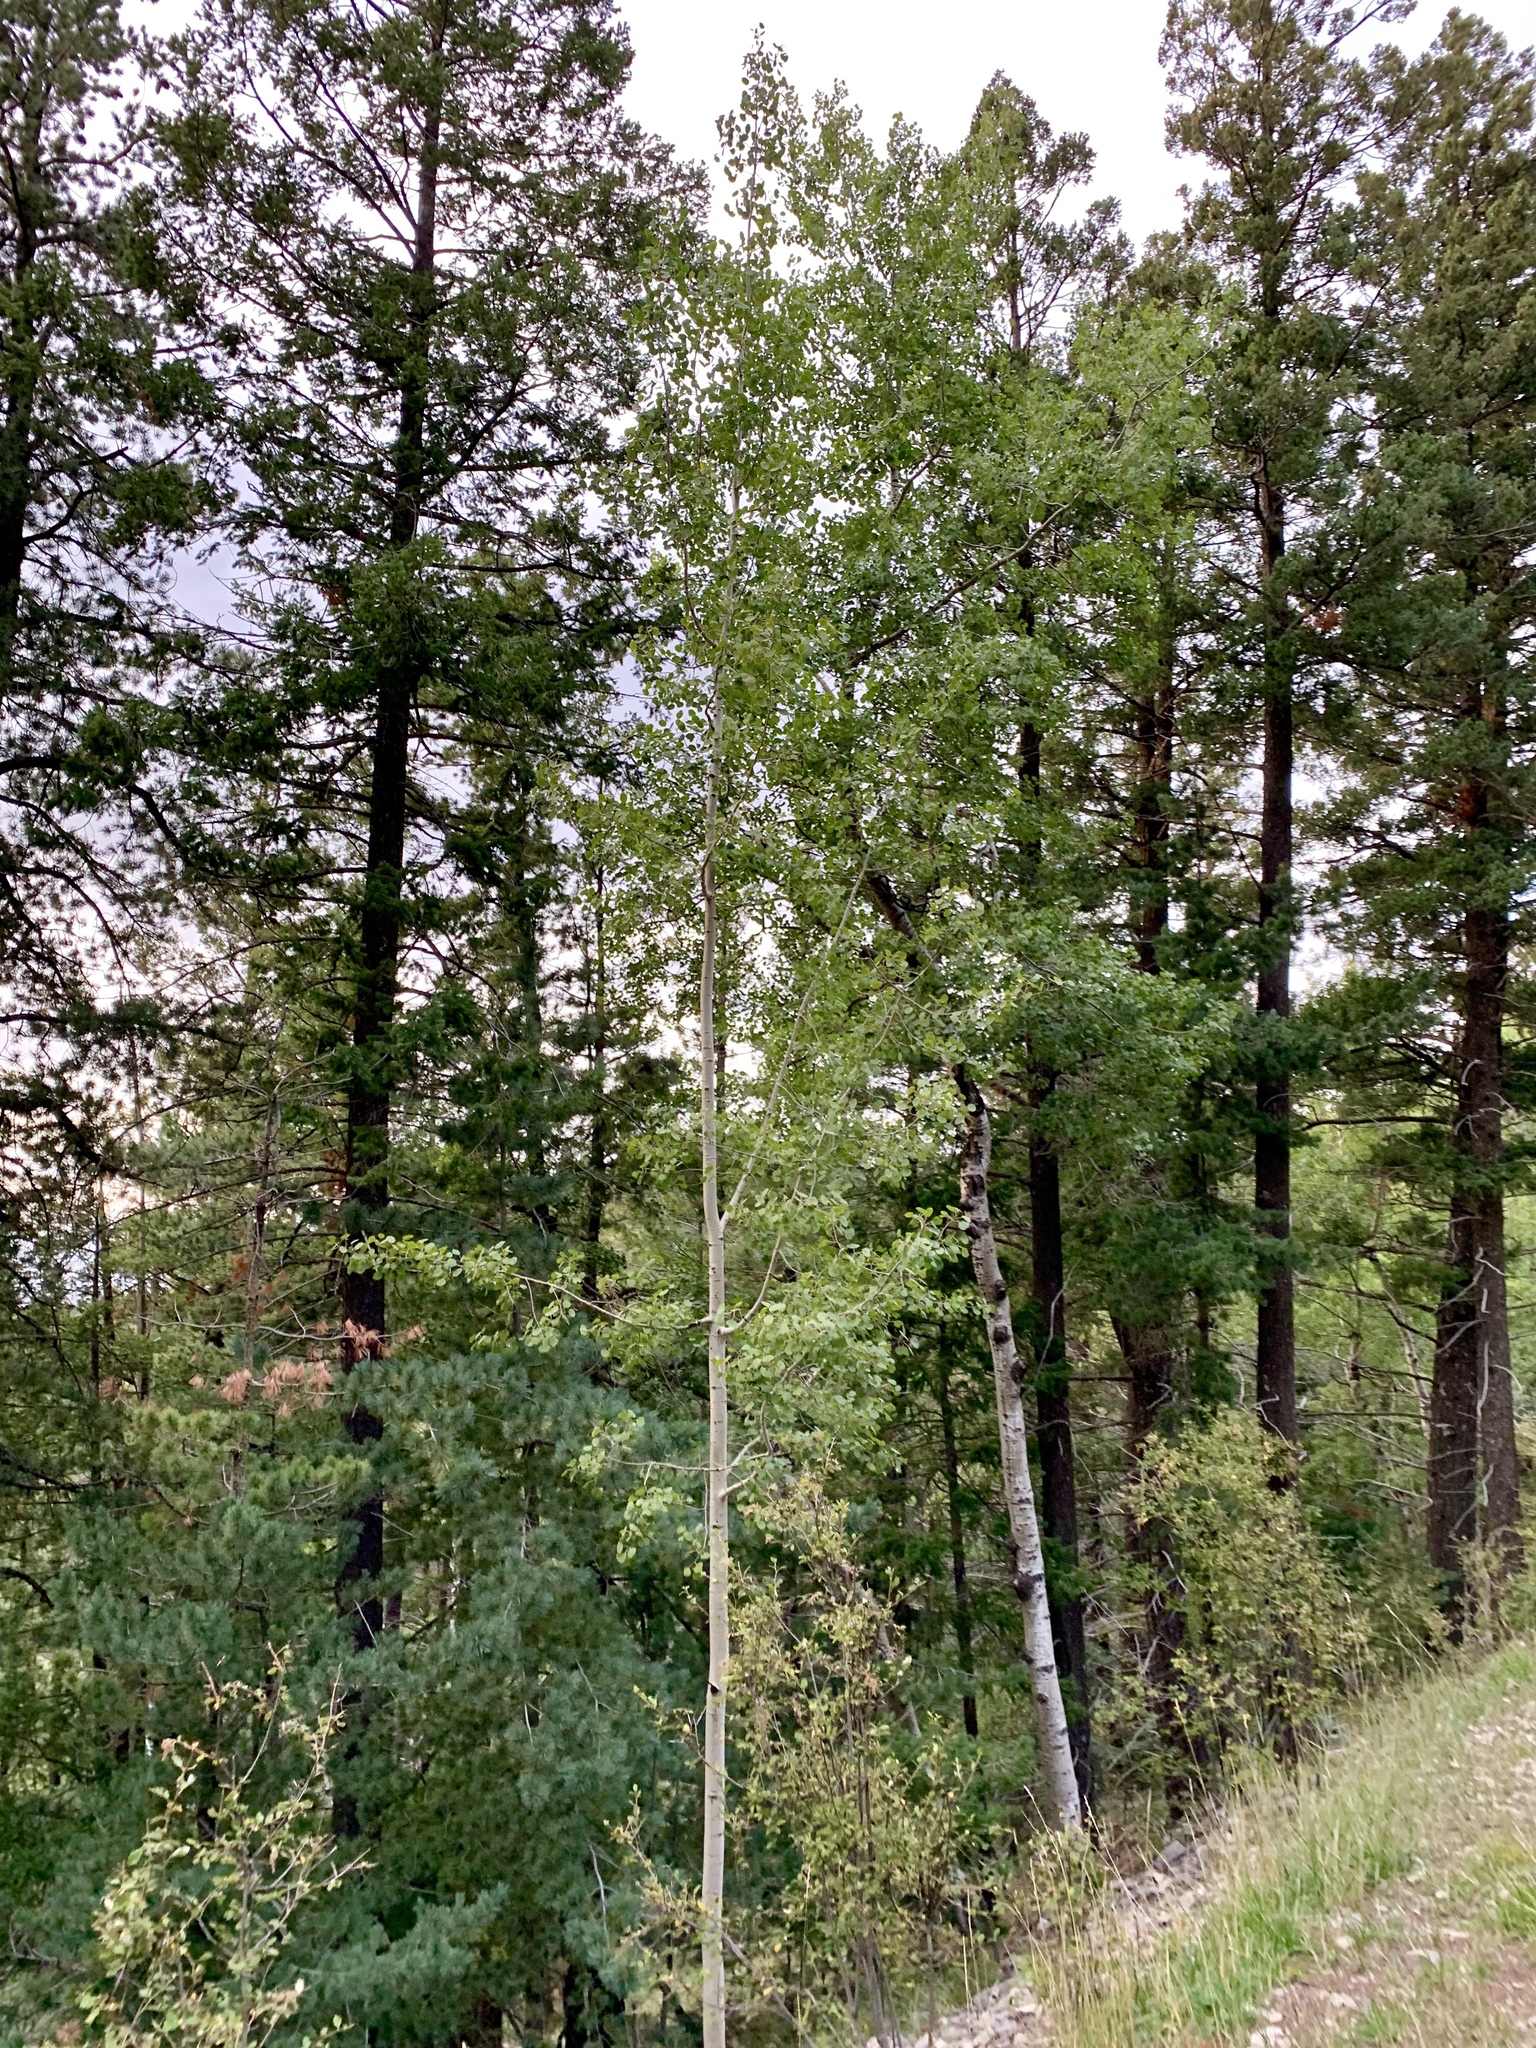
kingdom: Plantae
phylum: Tracheophyta
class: Magnoliopsida
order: Malpighiales
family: Salicaceae
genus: Populus
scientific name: Populus tremuloides
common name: Quaking aspen
